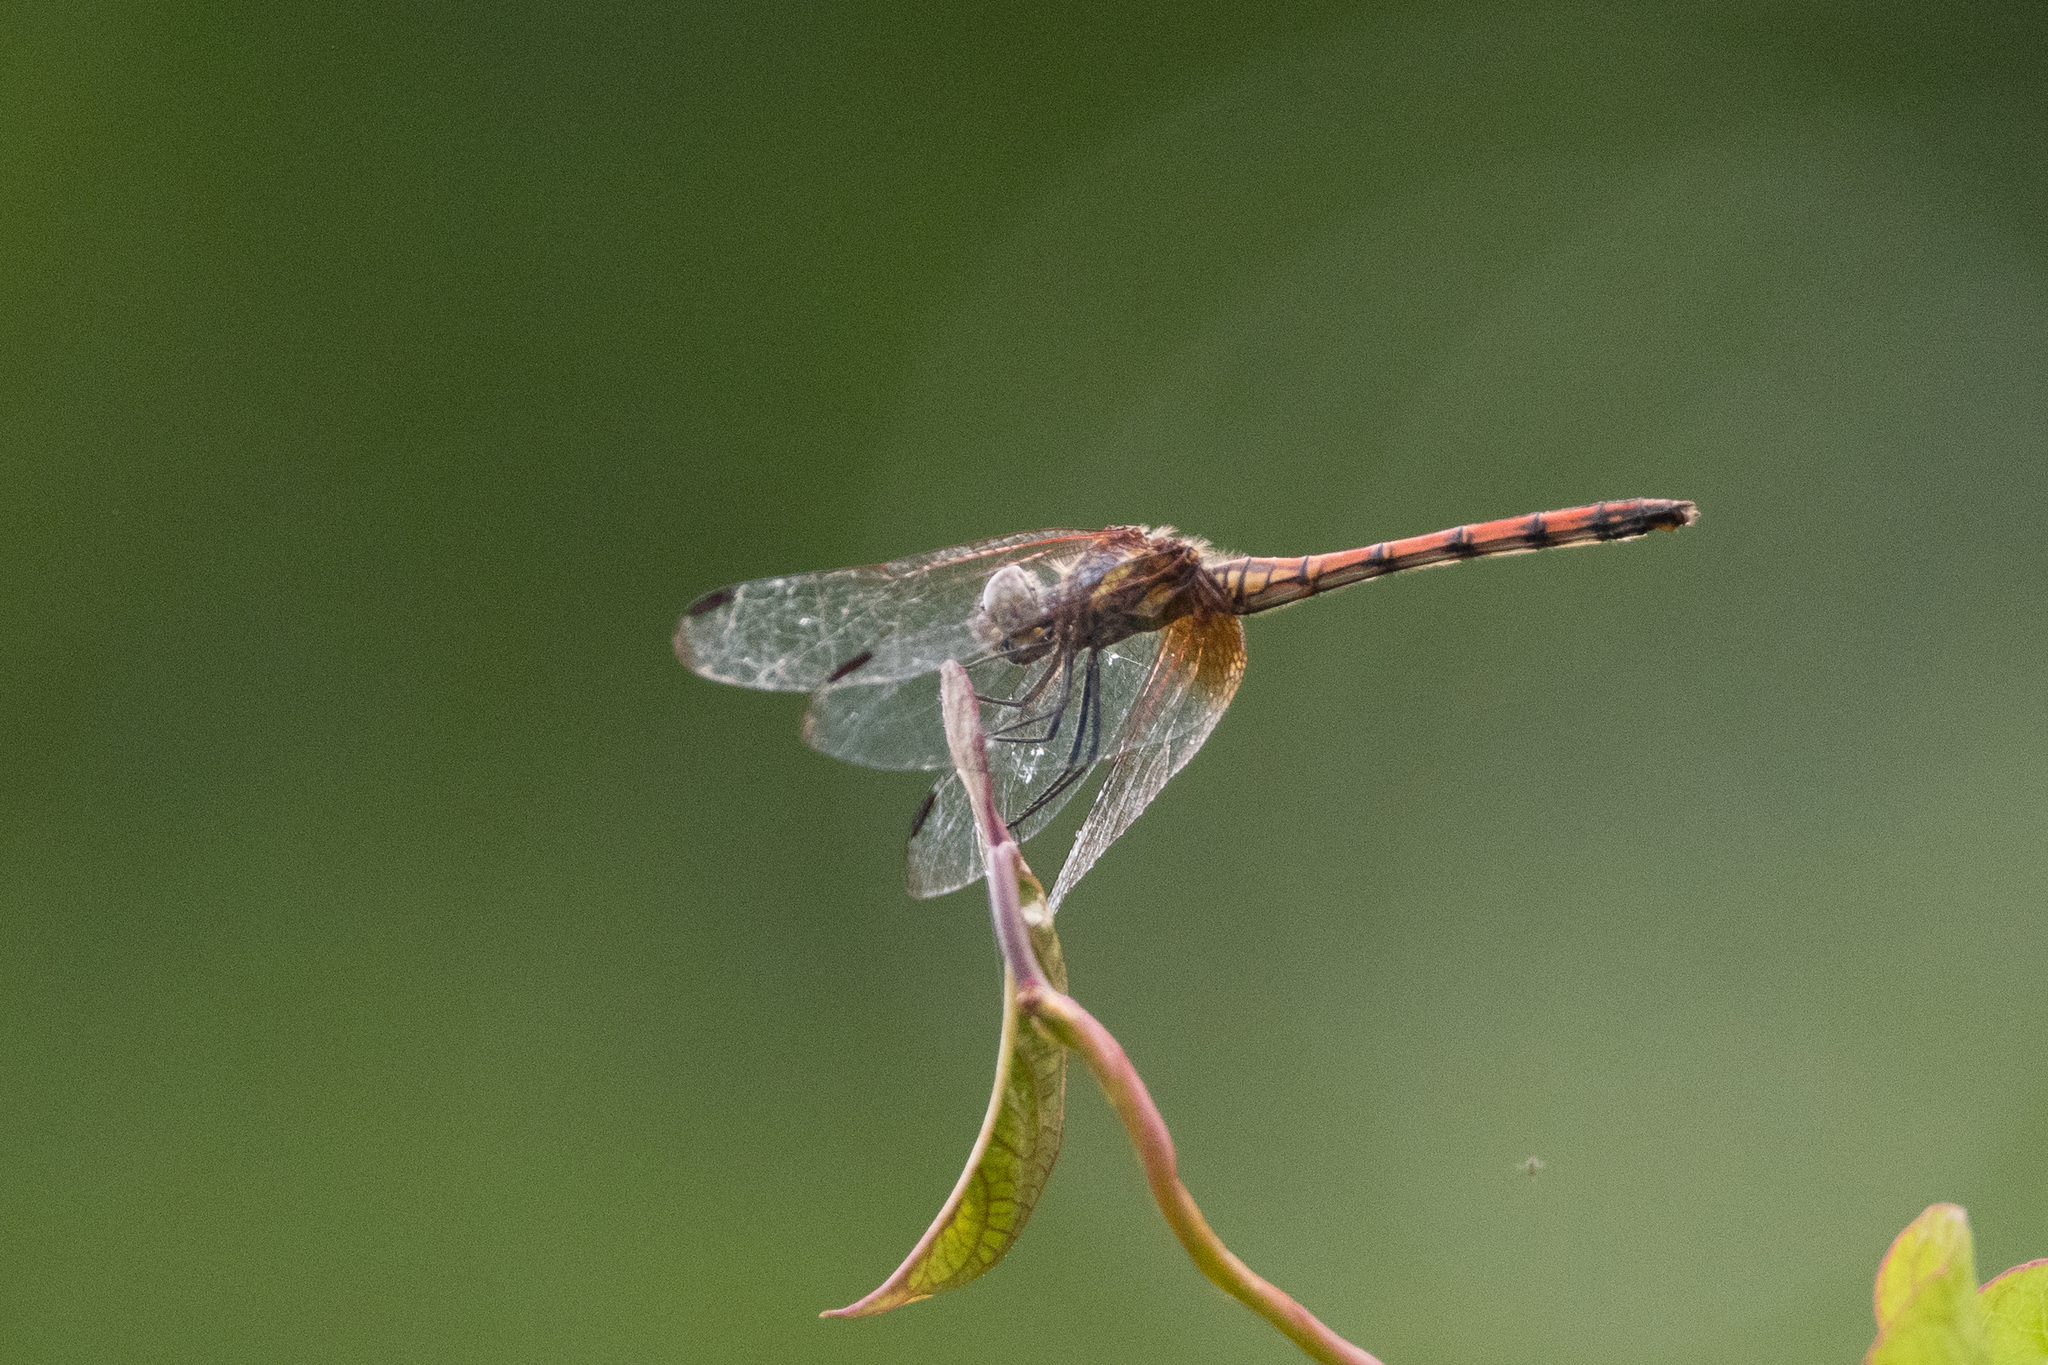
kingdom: Animalia
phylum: Arthropoda
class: Insecta
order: Odonata
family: Libellulidae
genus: Dythemis
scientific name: Dythemis rufinervis
